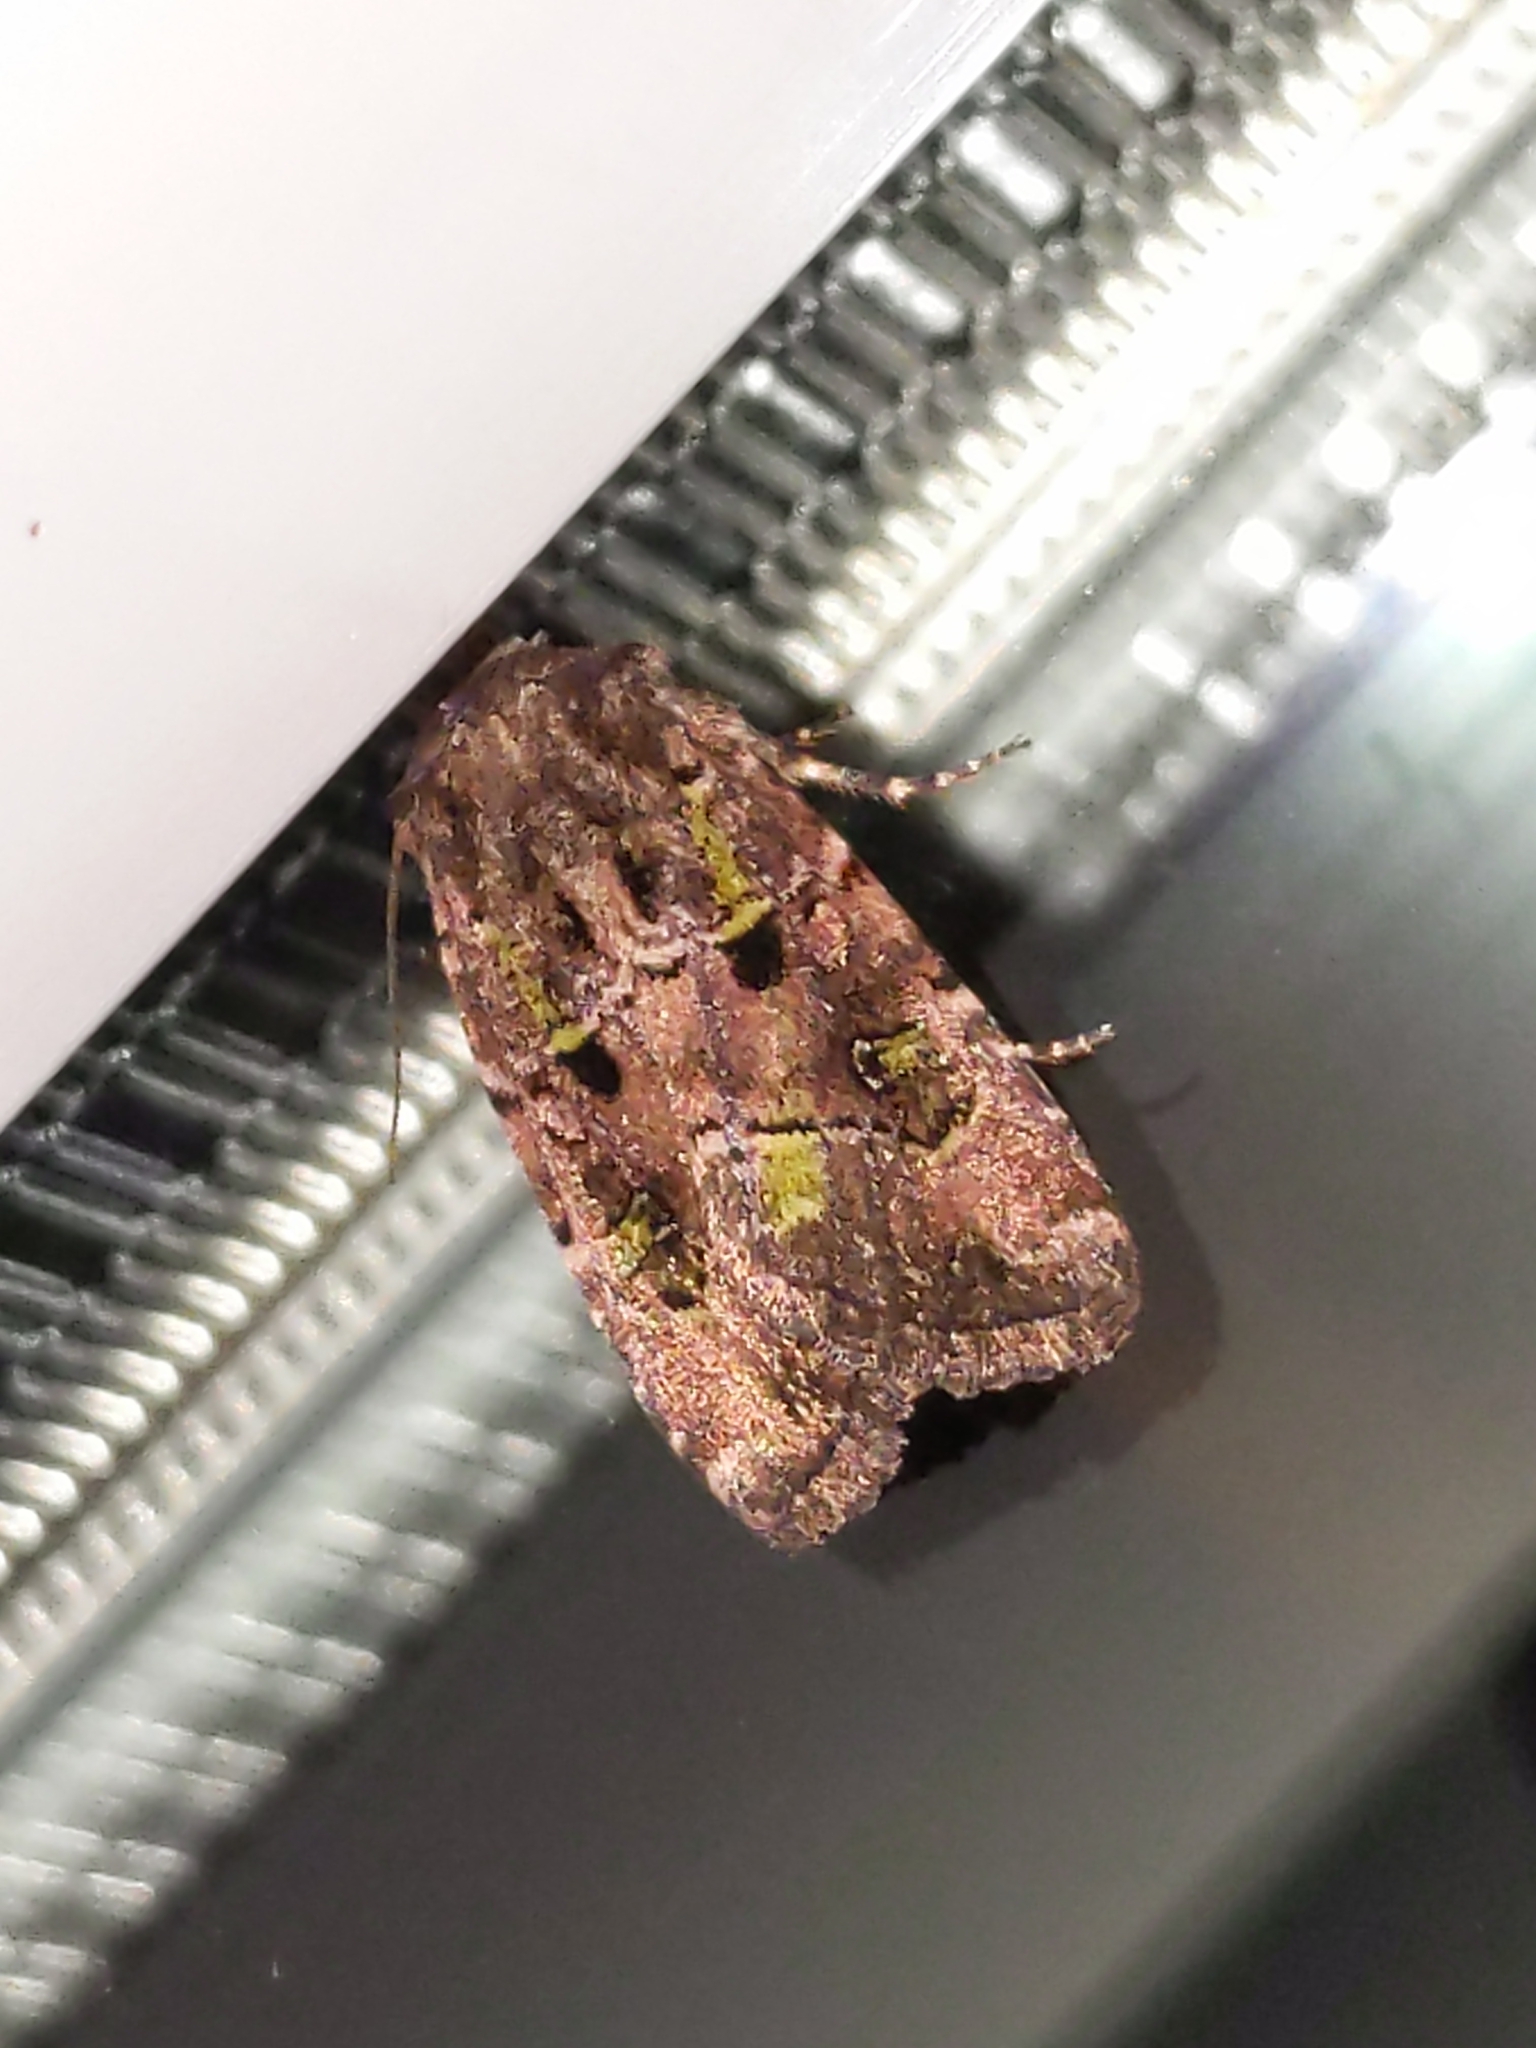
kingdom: Animalia
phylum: Arthropoda
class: Insecta
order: Lepidoptera
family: Noctuidae
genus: Lacinipolia
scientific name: Lacinipolia renigera
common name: Kidney-spotted minor
